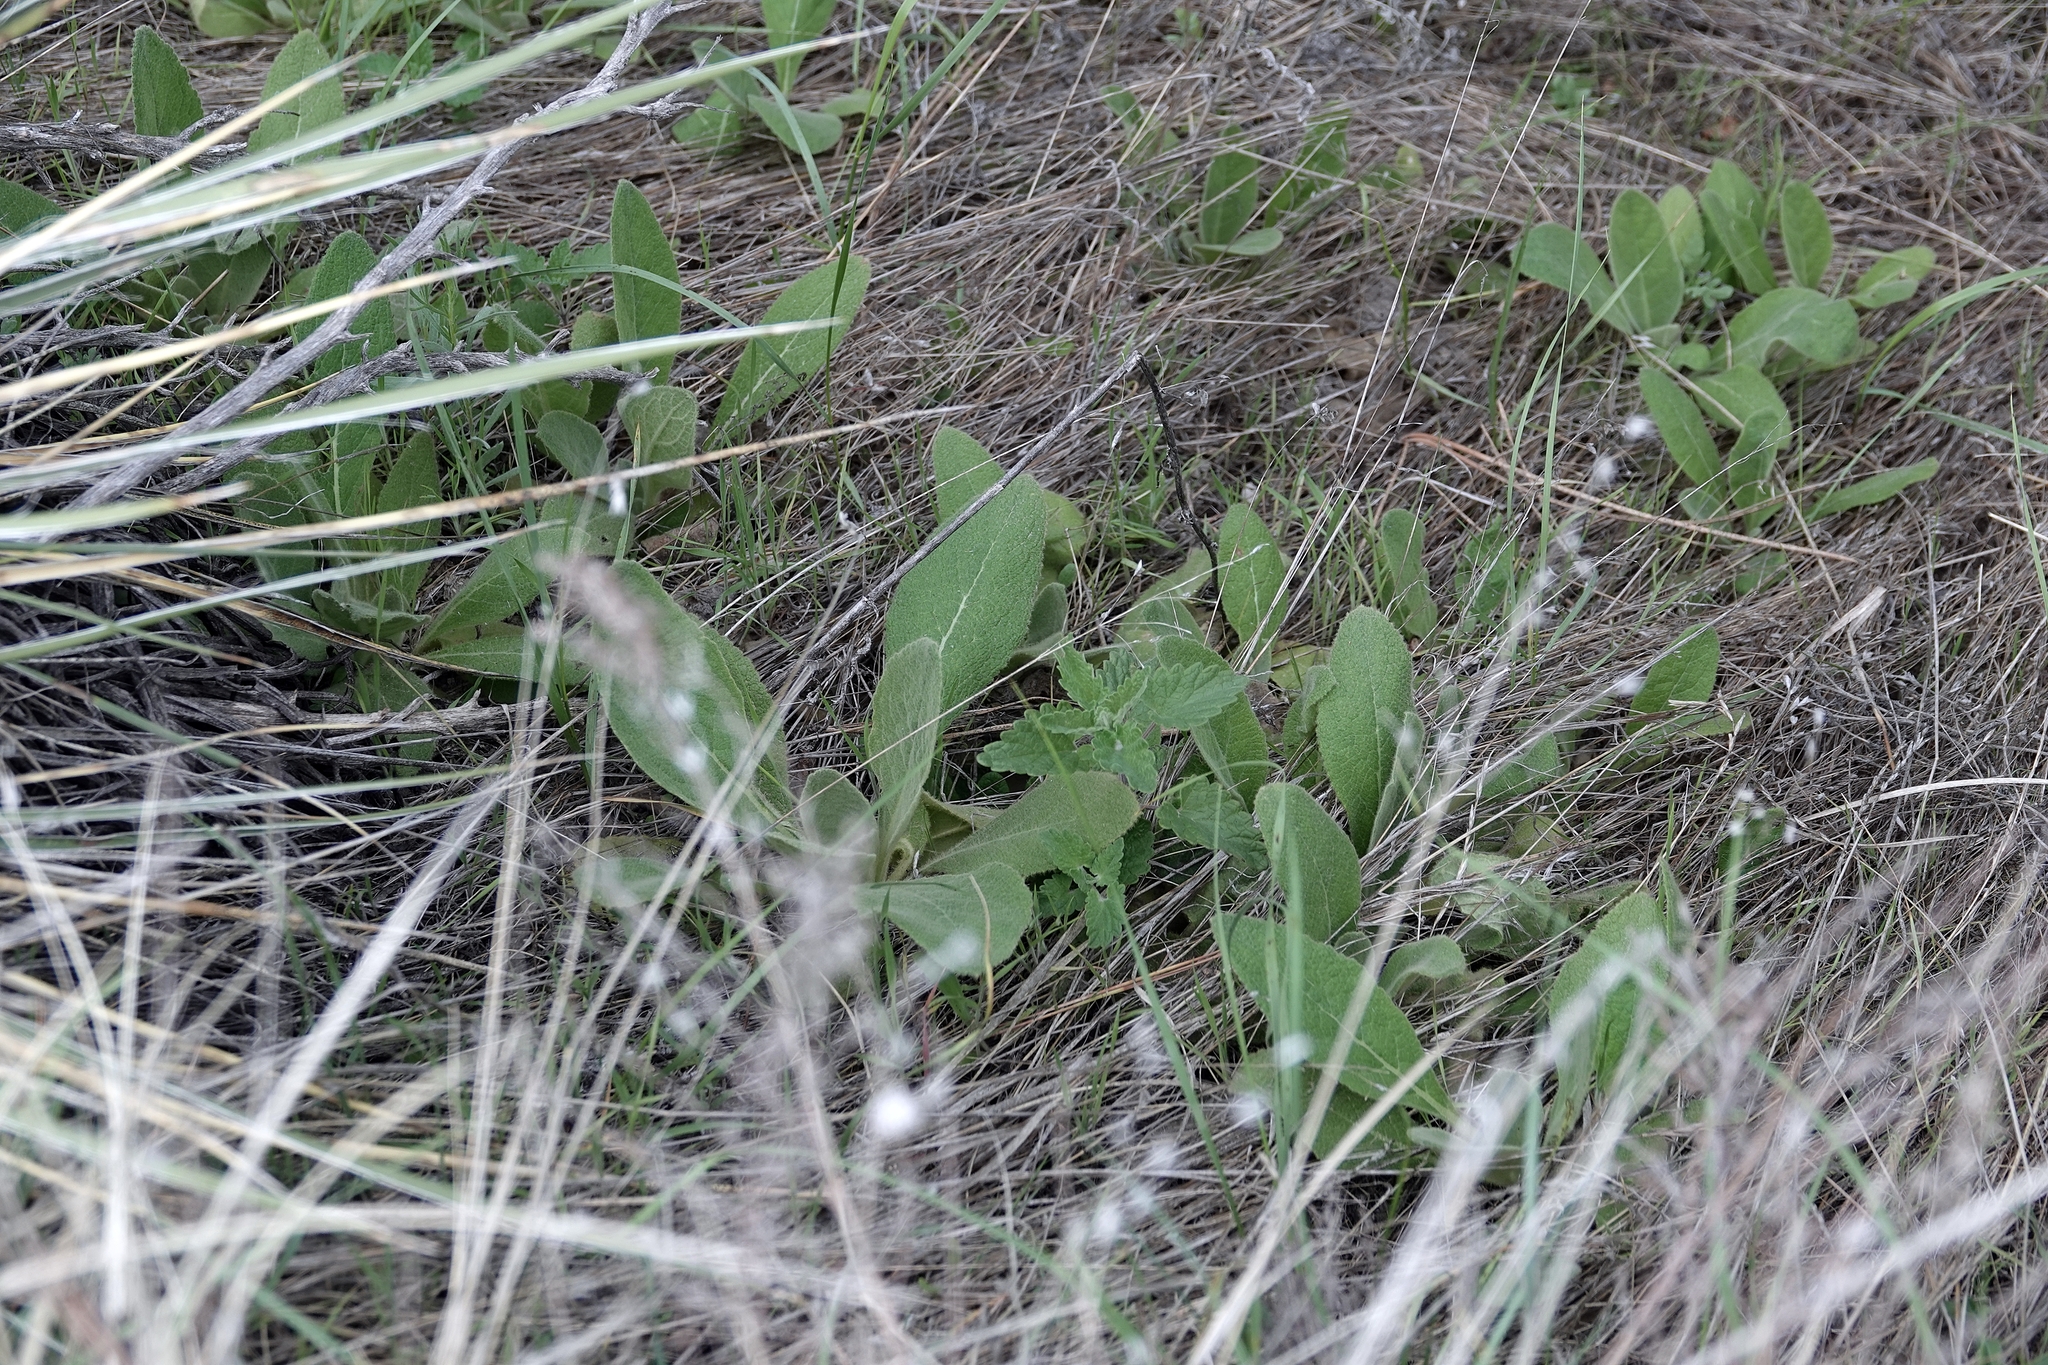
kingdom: Plantae
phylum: Tracheophyta
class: Magnoliopsida
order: Lamiales
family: Scrophulariaceae
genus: Verbascum
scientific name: Verbascum thapsus
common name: Common mullein
